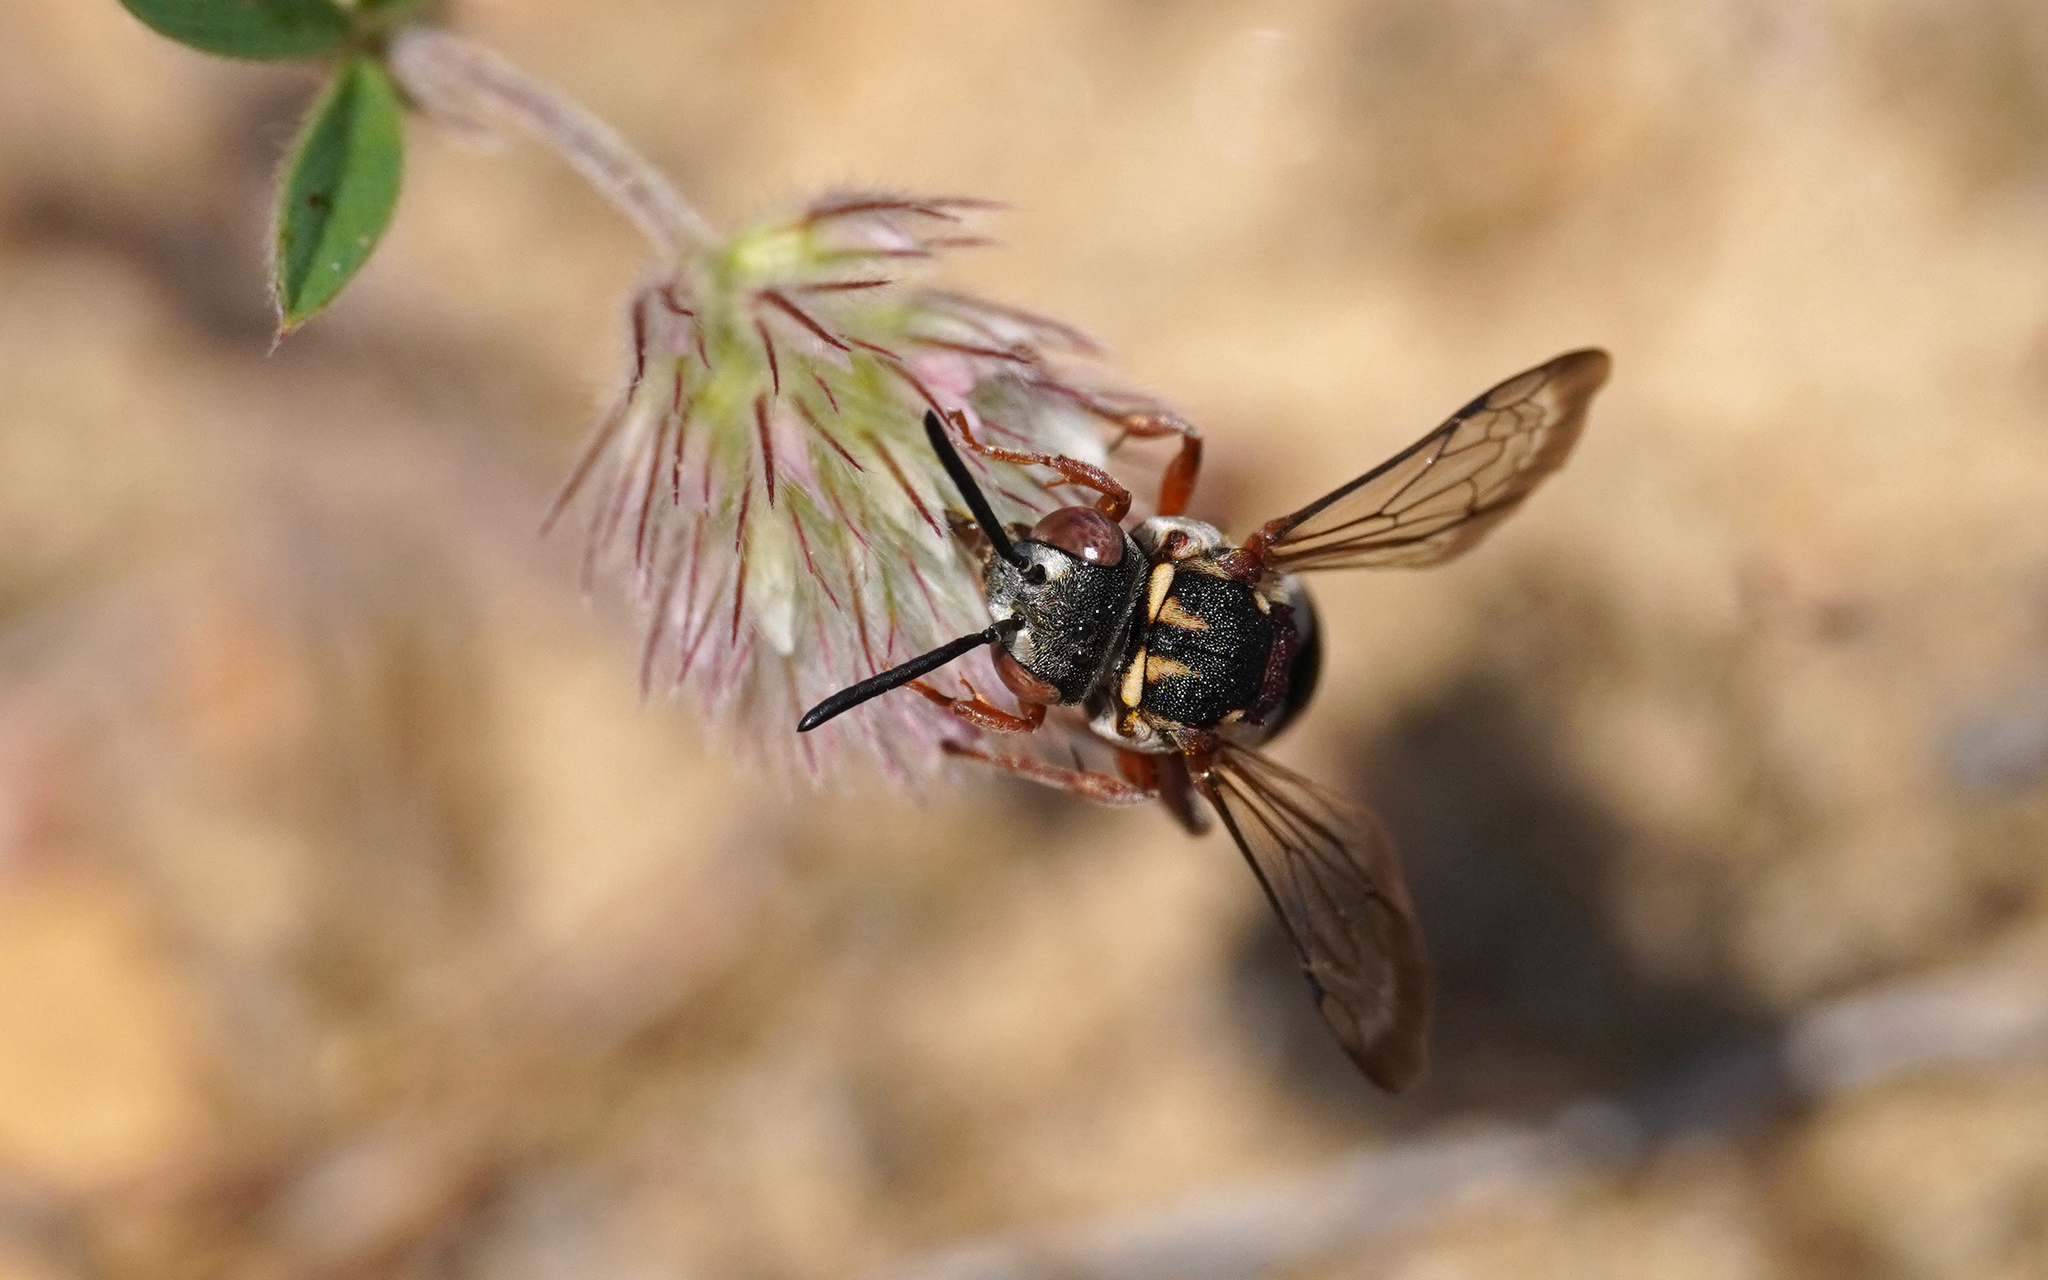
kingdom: Animalia
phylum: Arthropoda
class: Insecta
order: Hymenoptera
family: Apidae
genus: Epeolus
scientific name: Epeolus variegatus
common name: Black-thighed epeolus
